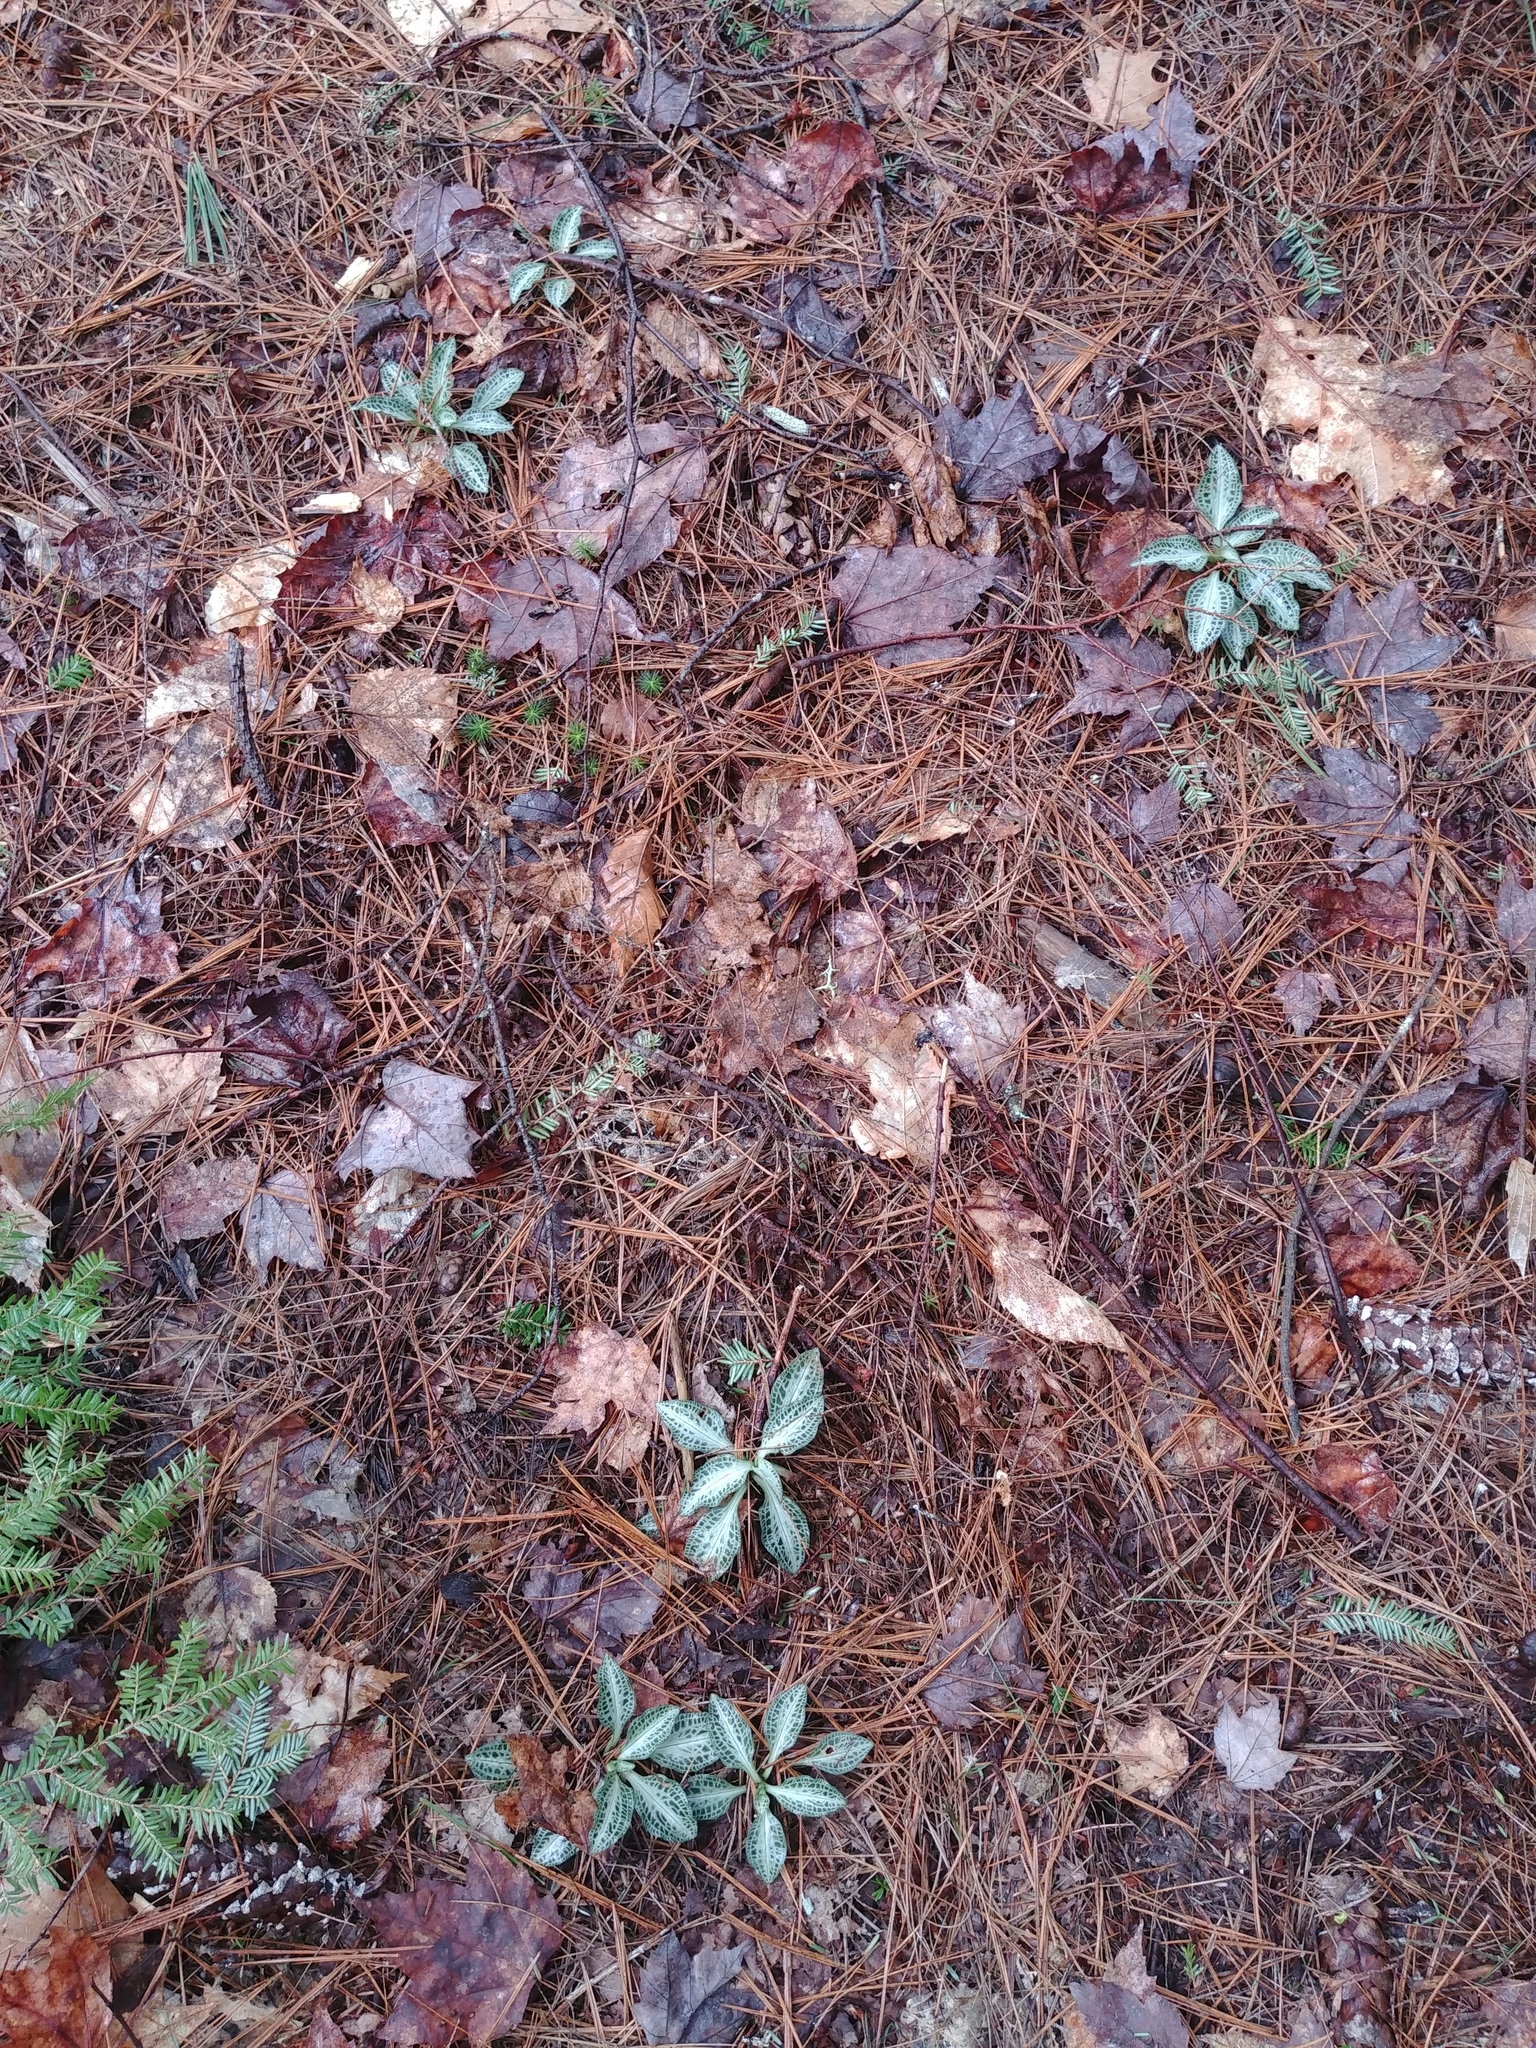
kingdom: Plantae
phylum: Tracheophyta
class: Liliopsida
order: Asparagales
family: Orchidaceae
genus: Goodyera
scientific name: Goodyera pubescens
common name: Downy rattlesnake-plantain
